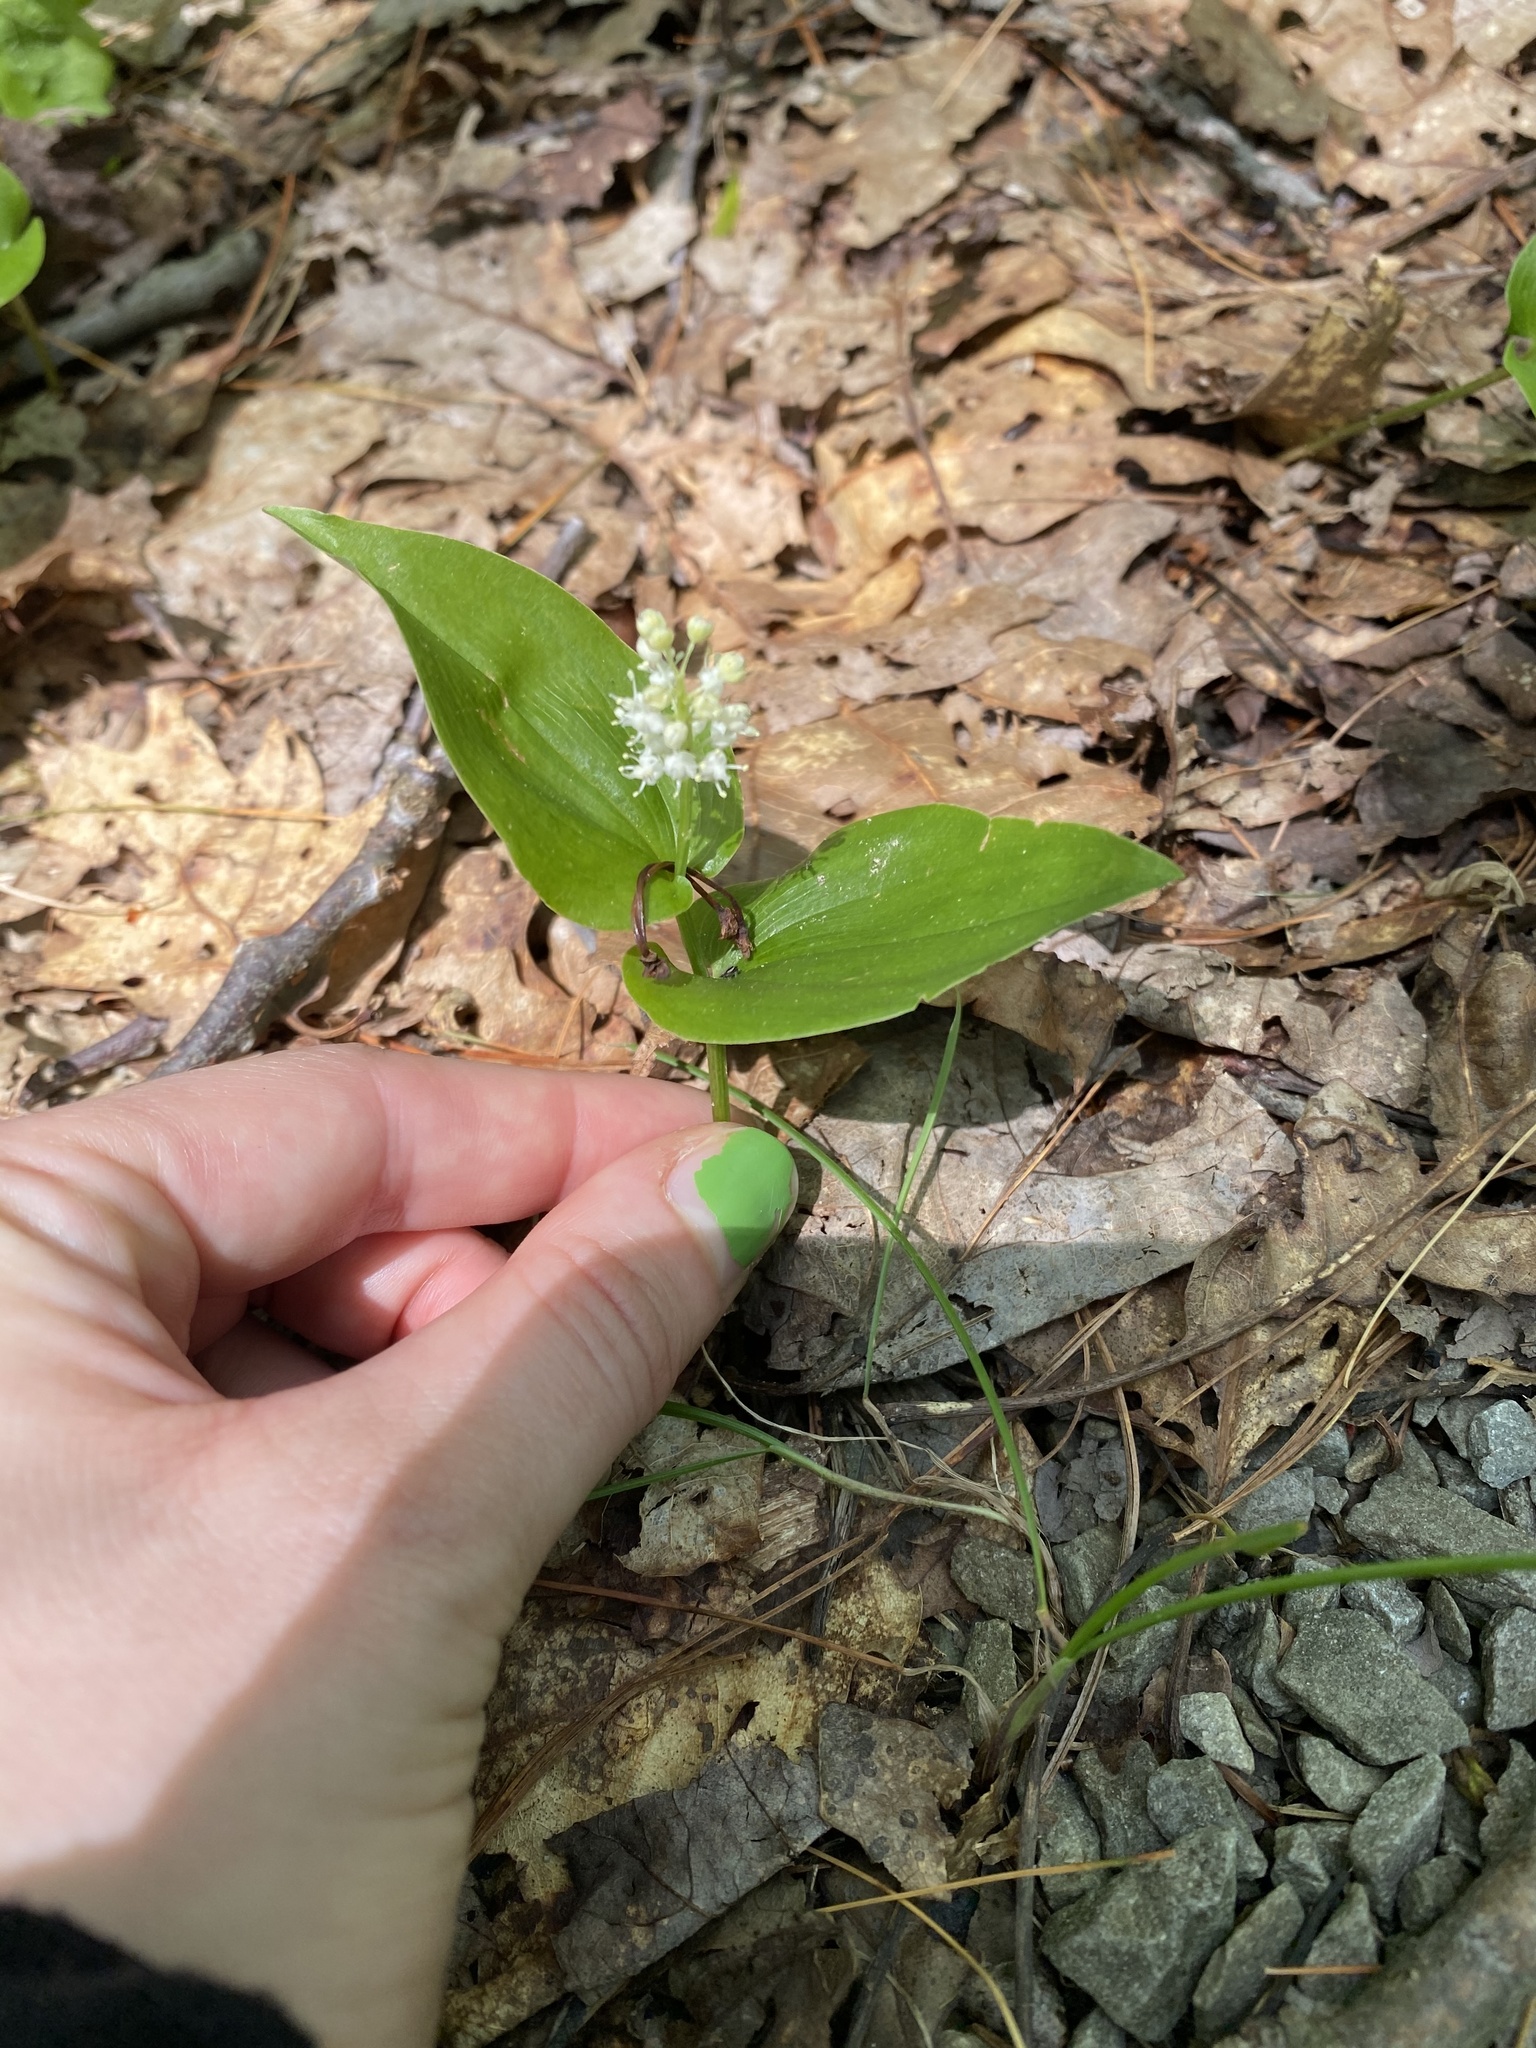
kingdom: Plantae
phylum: Tracheophyta
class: Liliopsida
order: Asparagales
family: Asparagaceae
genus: Maianthemum
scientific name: Maianthemum canadense
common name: False lily-of-the-valley
